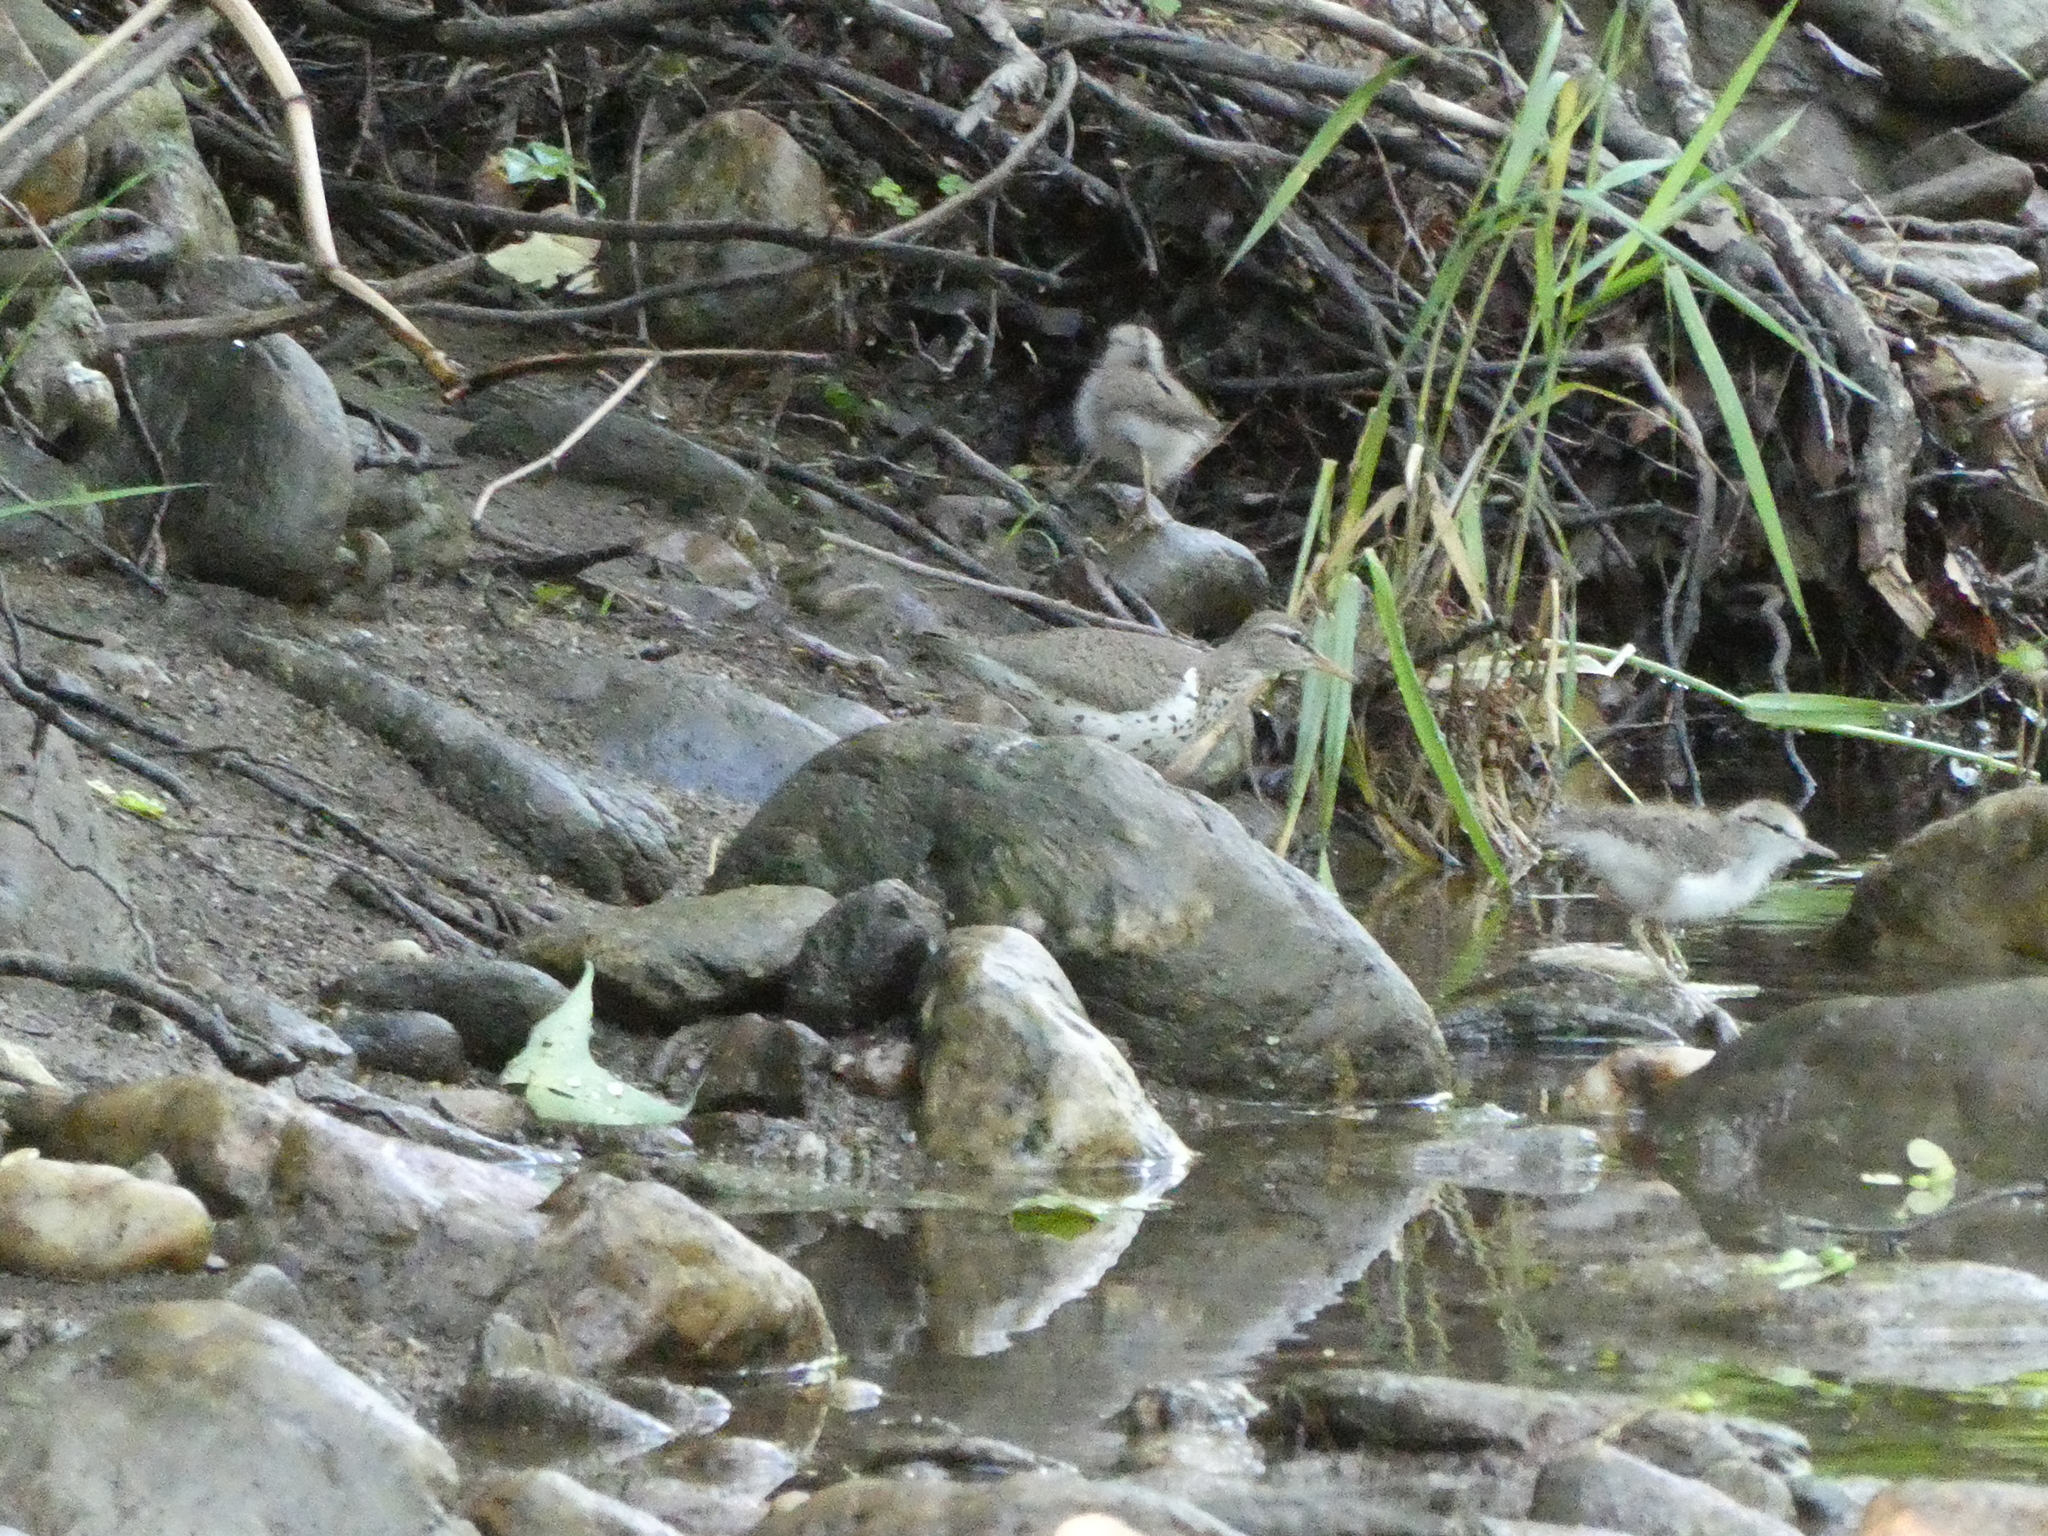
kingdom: Animalia
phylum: Chordata
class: Aves
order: Charadriiformes
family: Scolopacidae
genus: Actitis
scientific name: Actitis macularius
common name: Spotted sandpiper
